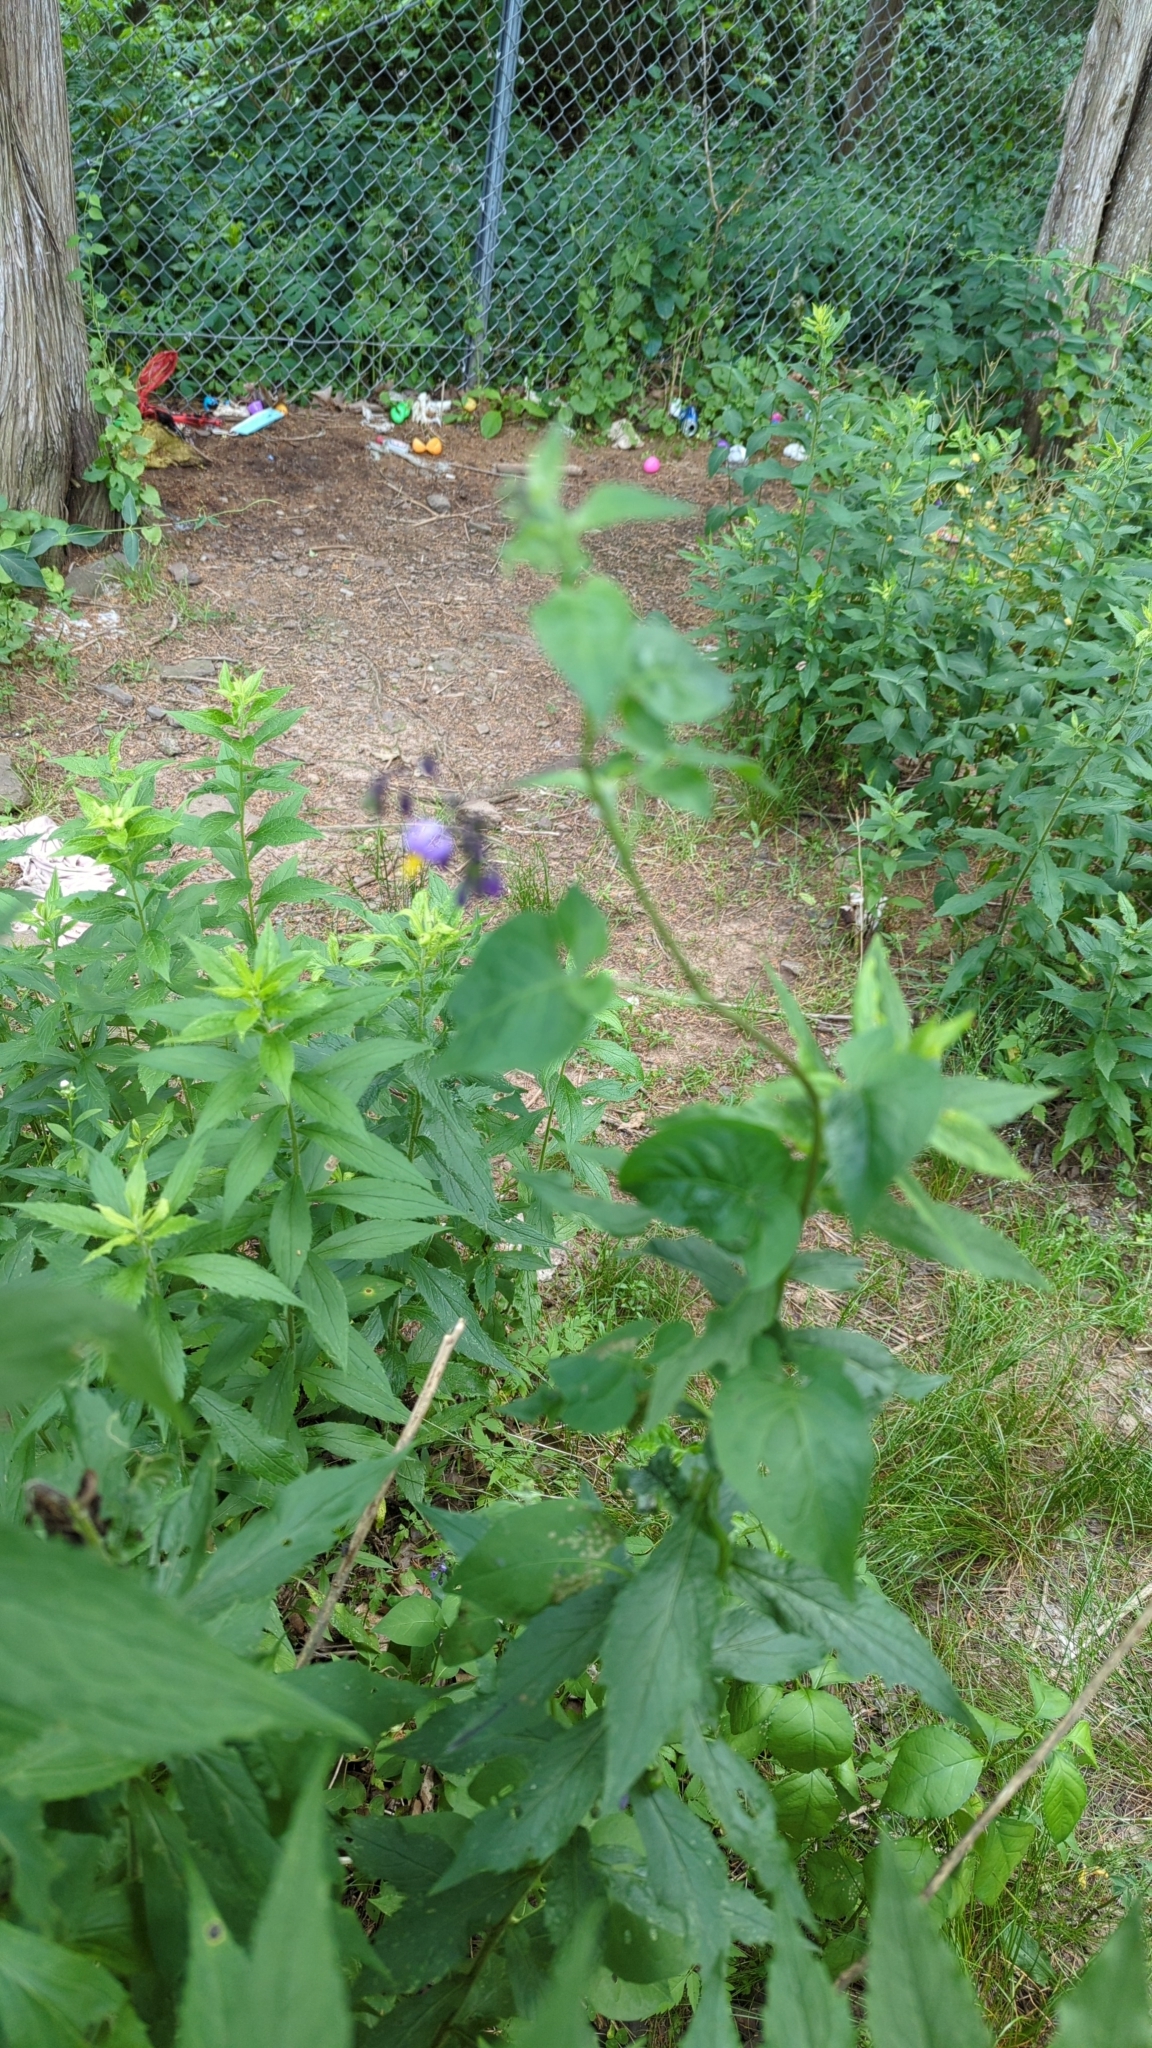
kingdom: Plantae
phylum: Tracheophyta
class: Magnoliopsida
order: Solanales
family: Solanaceae
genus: Solanum
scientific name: Solanum dulcamara
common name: Climbing nightshade
